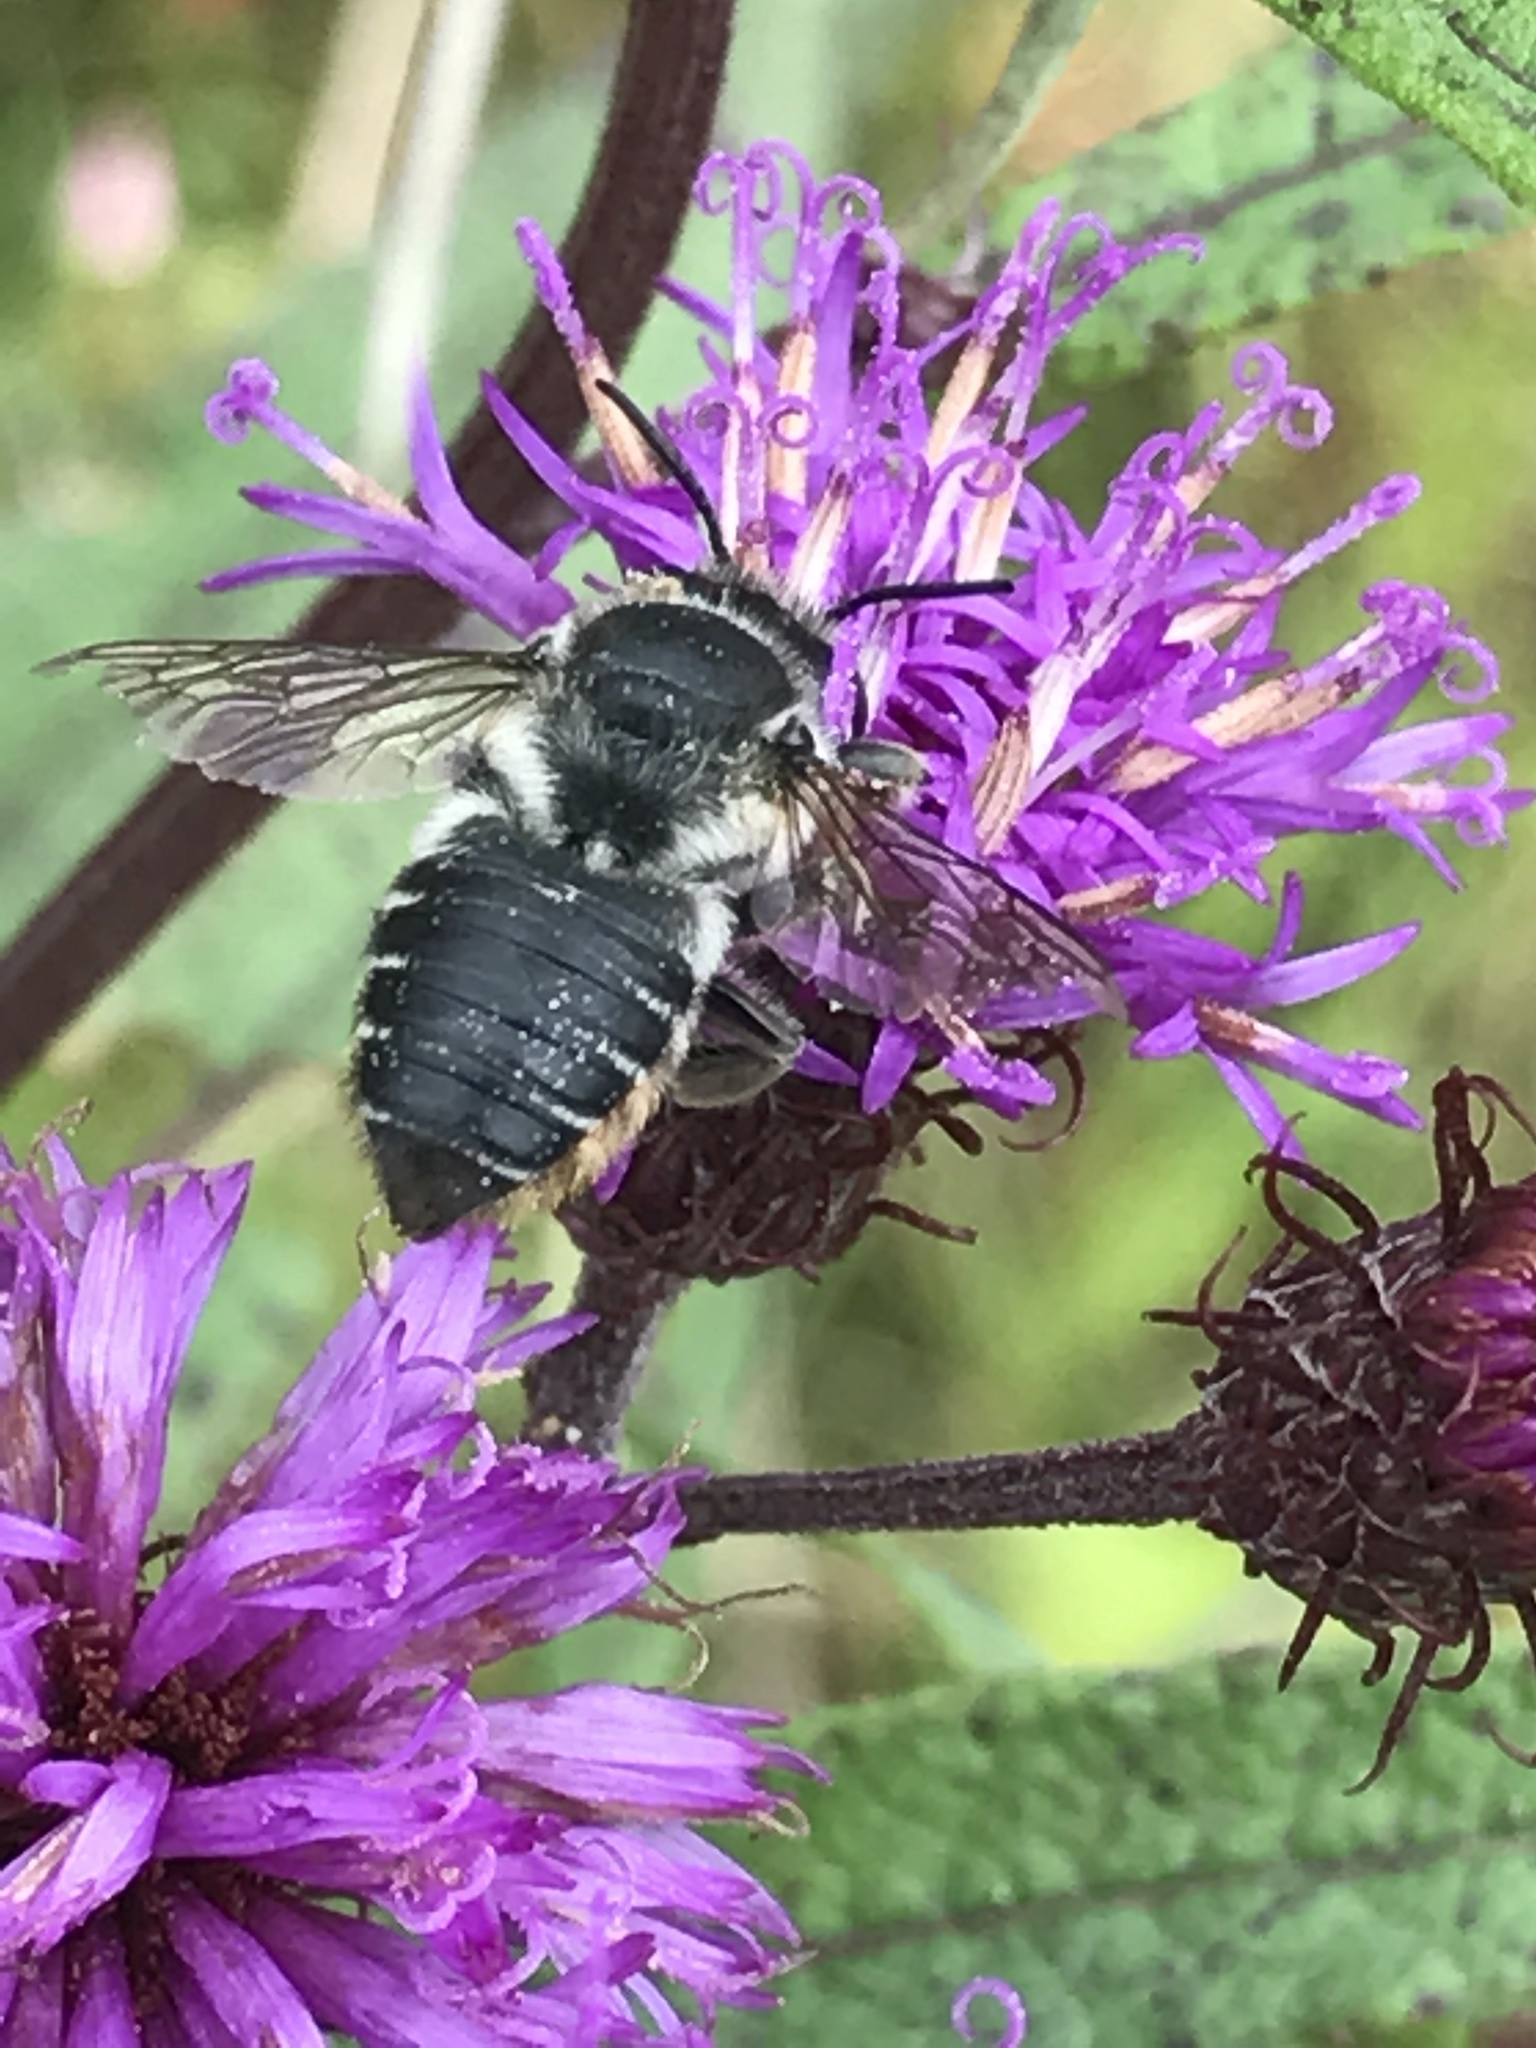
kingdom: Animalia
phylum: Arthropoda
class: Insecta
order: Hymenoptera
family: Megachilidae
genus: Megachile
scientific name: Megachile mendica
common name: Flat-tailed leafcutter
